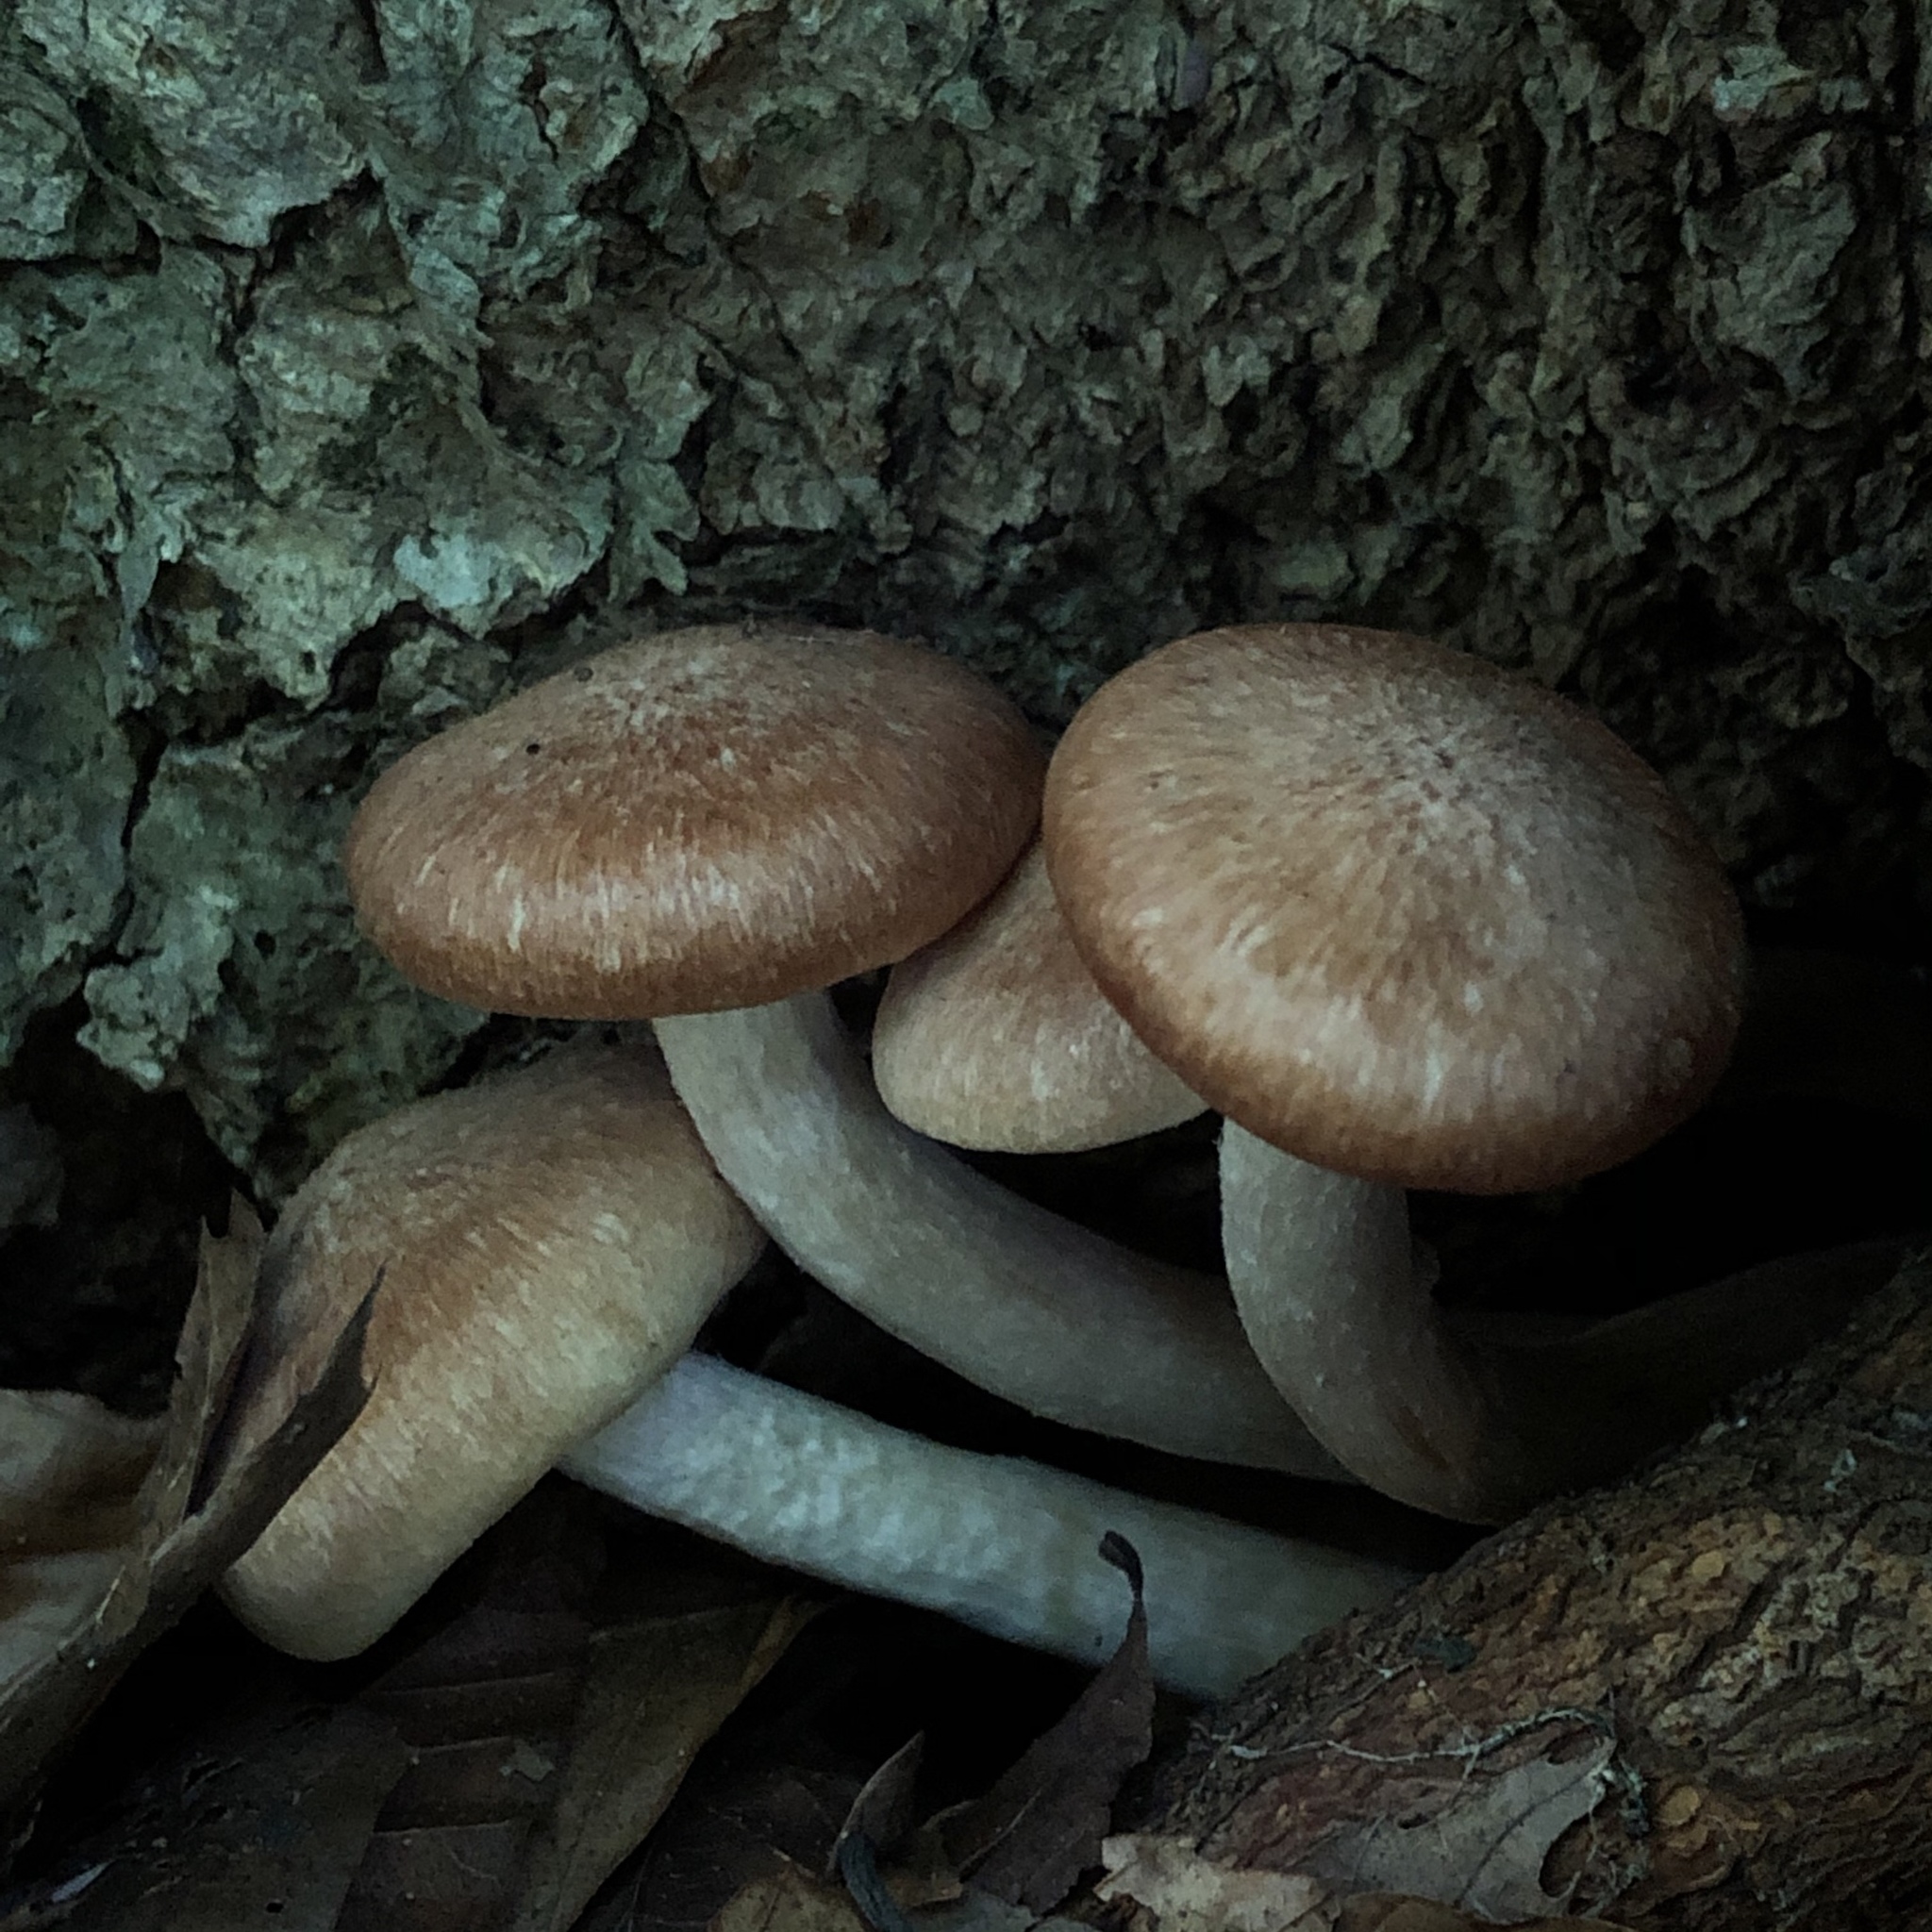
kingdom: Fungi
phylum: Basidiomycota
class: Agaricomycetes
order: Agaricales
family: Physalacriaceae
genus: Desarmillaria
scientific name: Desarmillaria caespitosa
